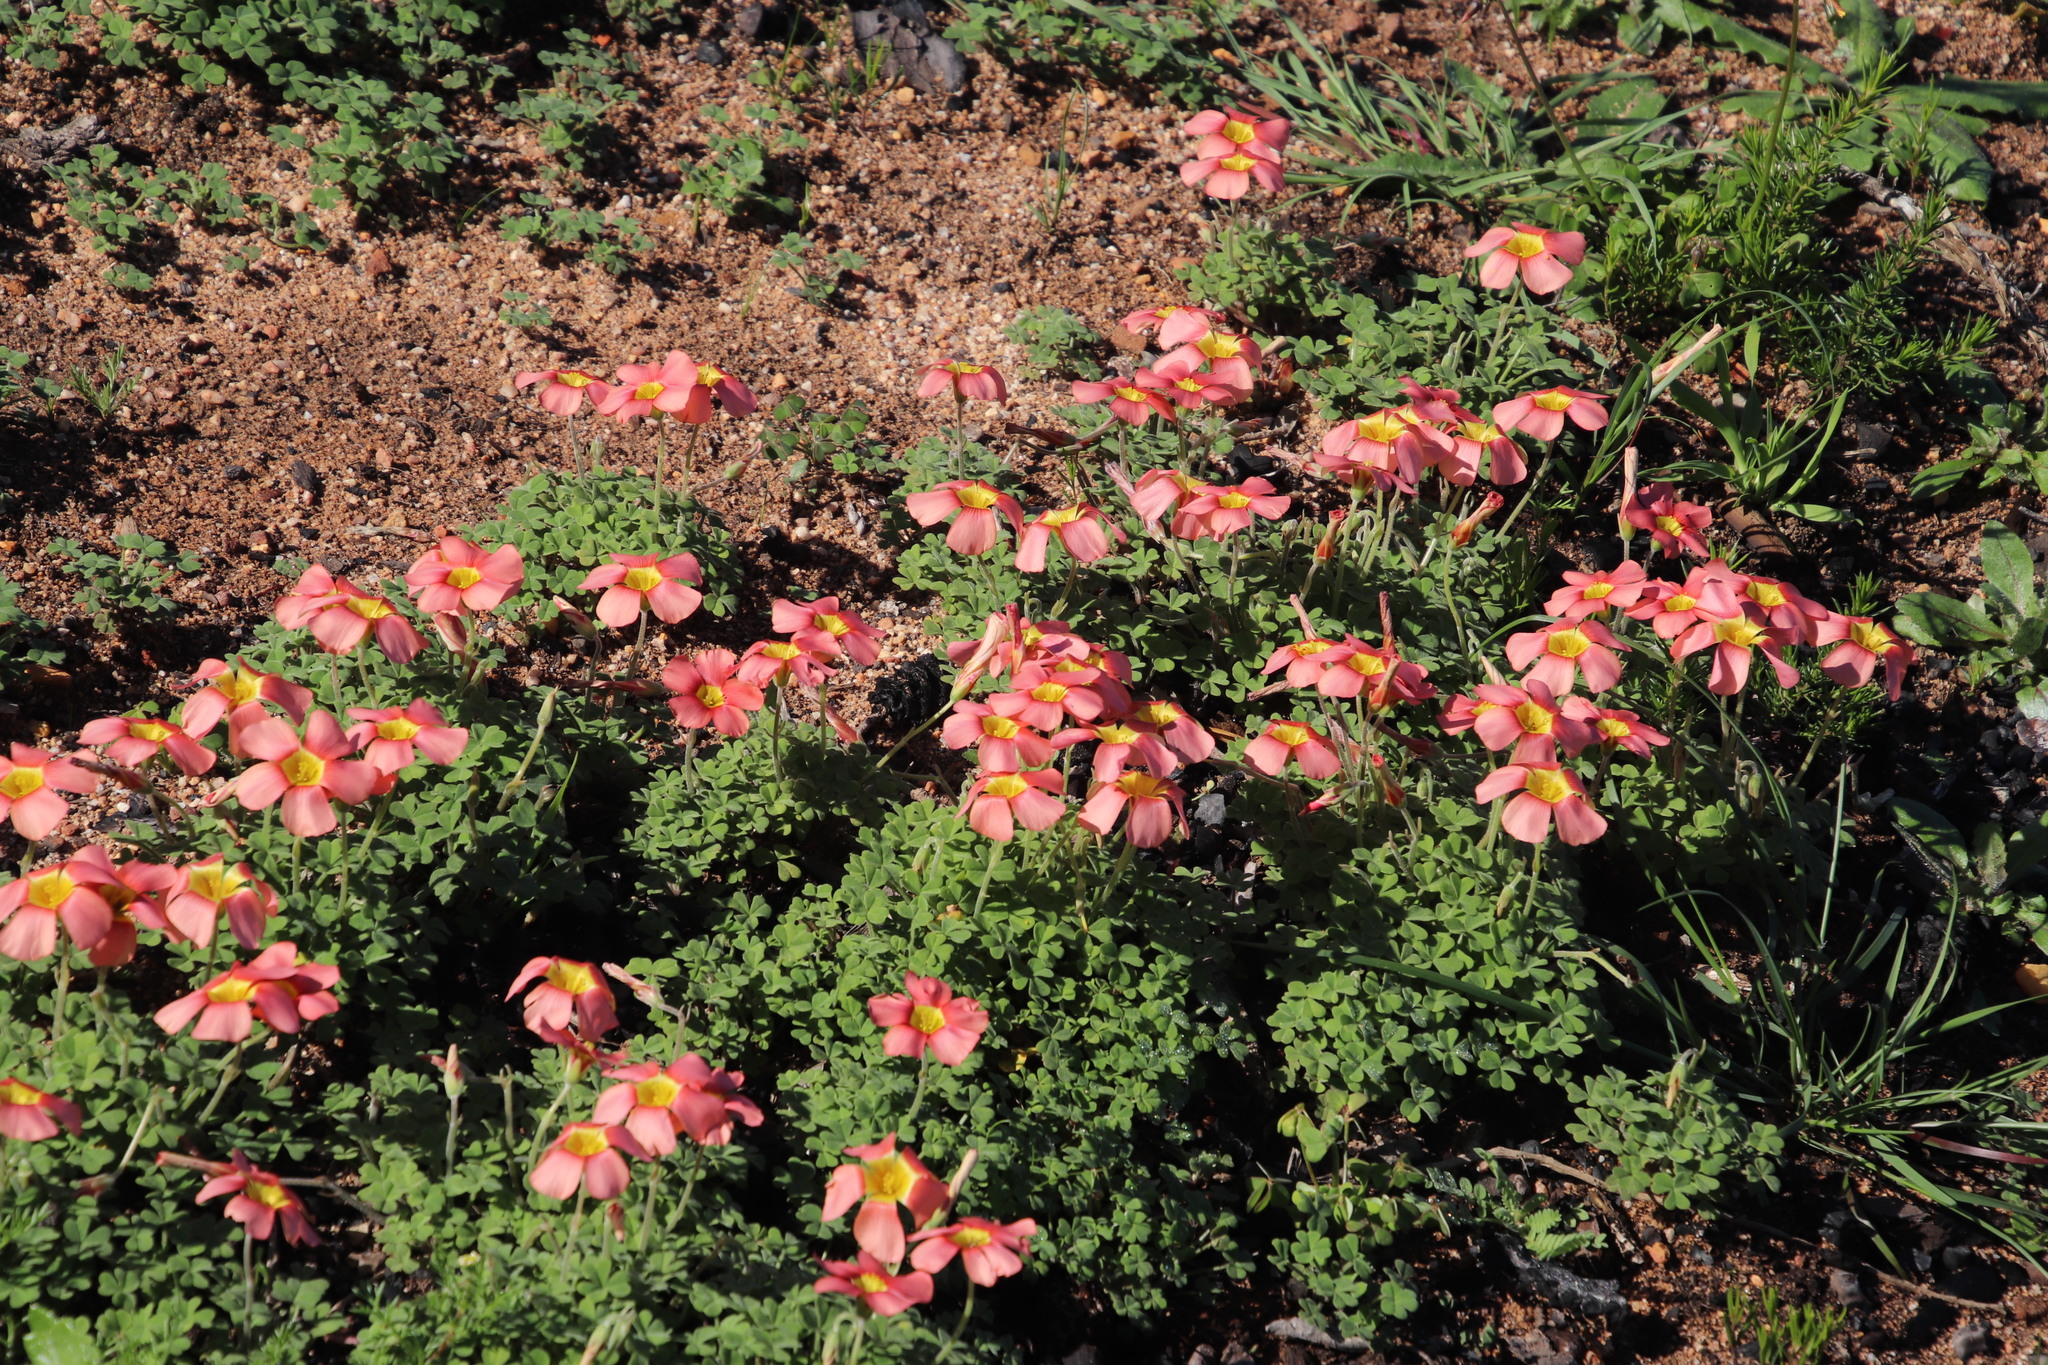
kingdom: Plantae
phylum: Tracheophyta
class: Magnoliopsida
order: Oxalidales
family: Oxalidaceae
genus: Oxalis
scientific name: Oxalis obtusa
